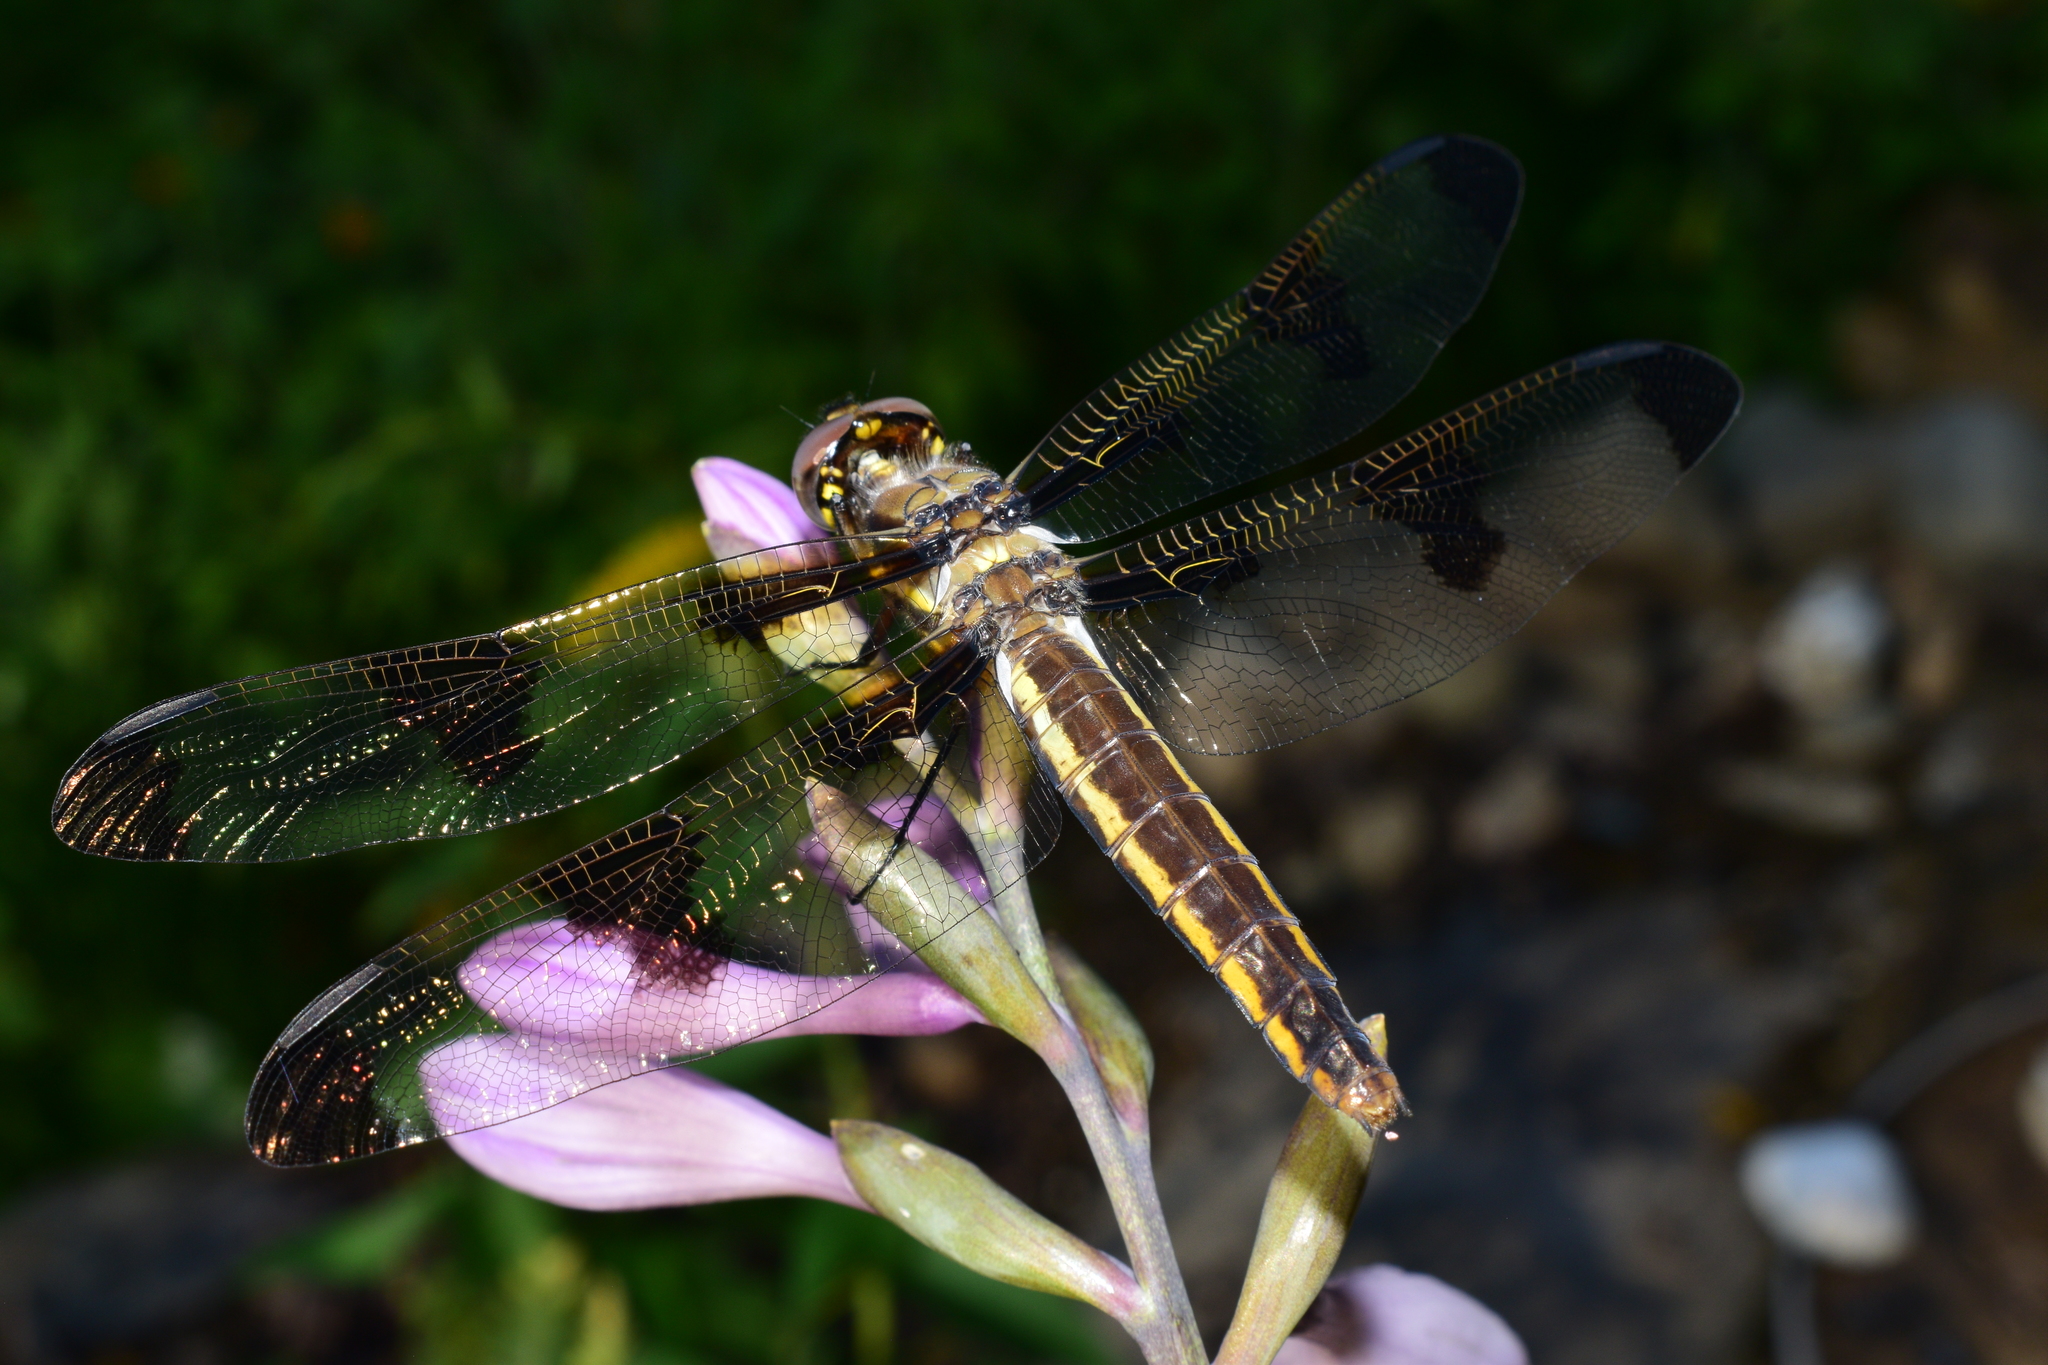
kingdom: Animalia
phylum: Arthropoda
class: Insecta
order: Odonata
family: Libellulidae
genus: Libellula
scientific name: Libellula pulchella
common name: Twelve-spotted skimmer
